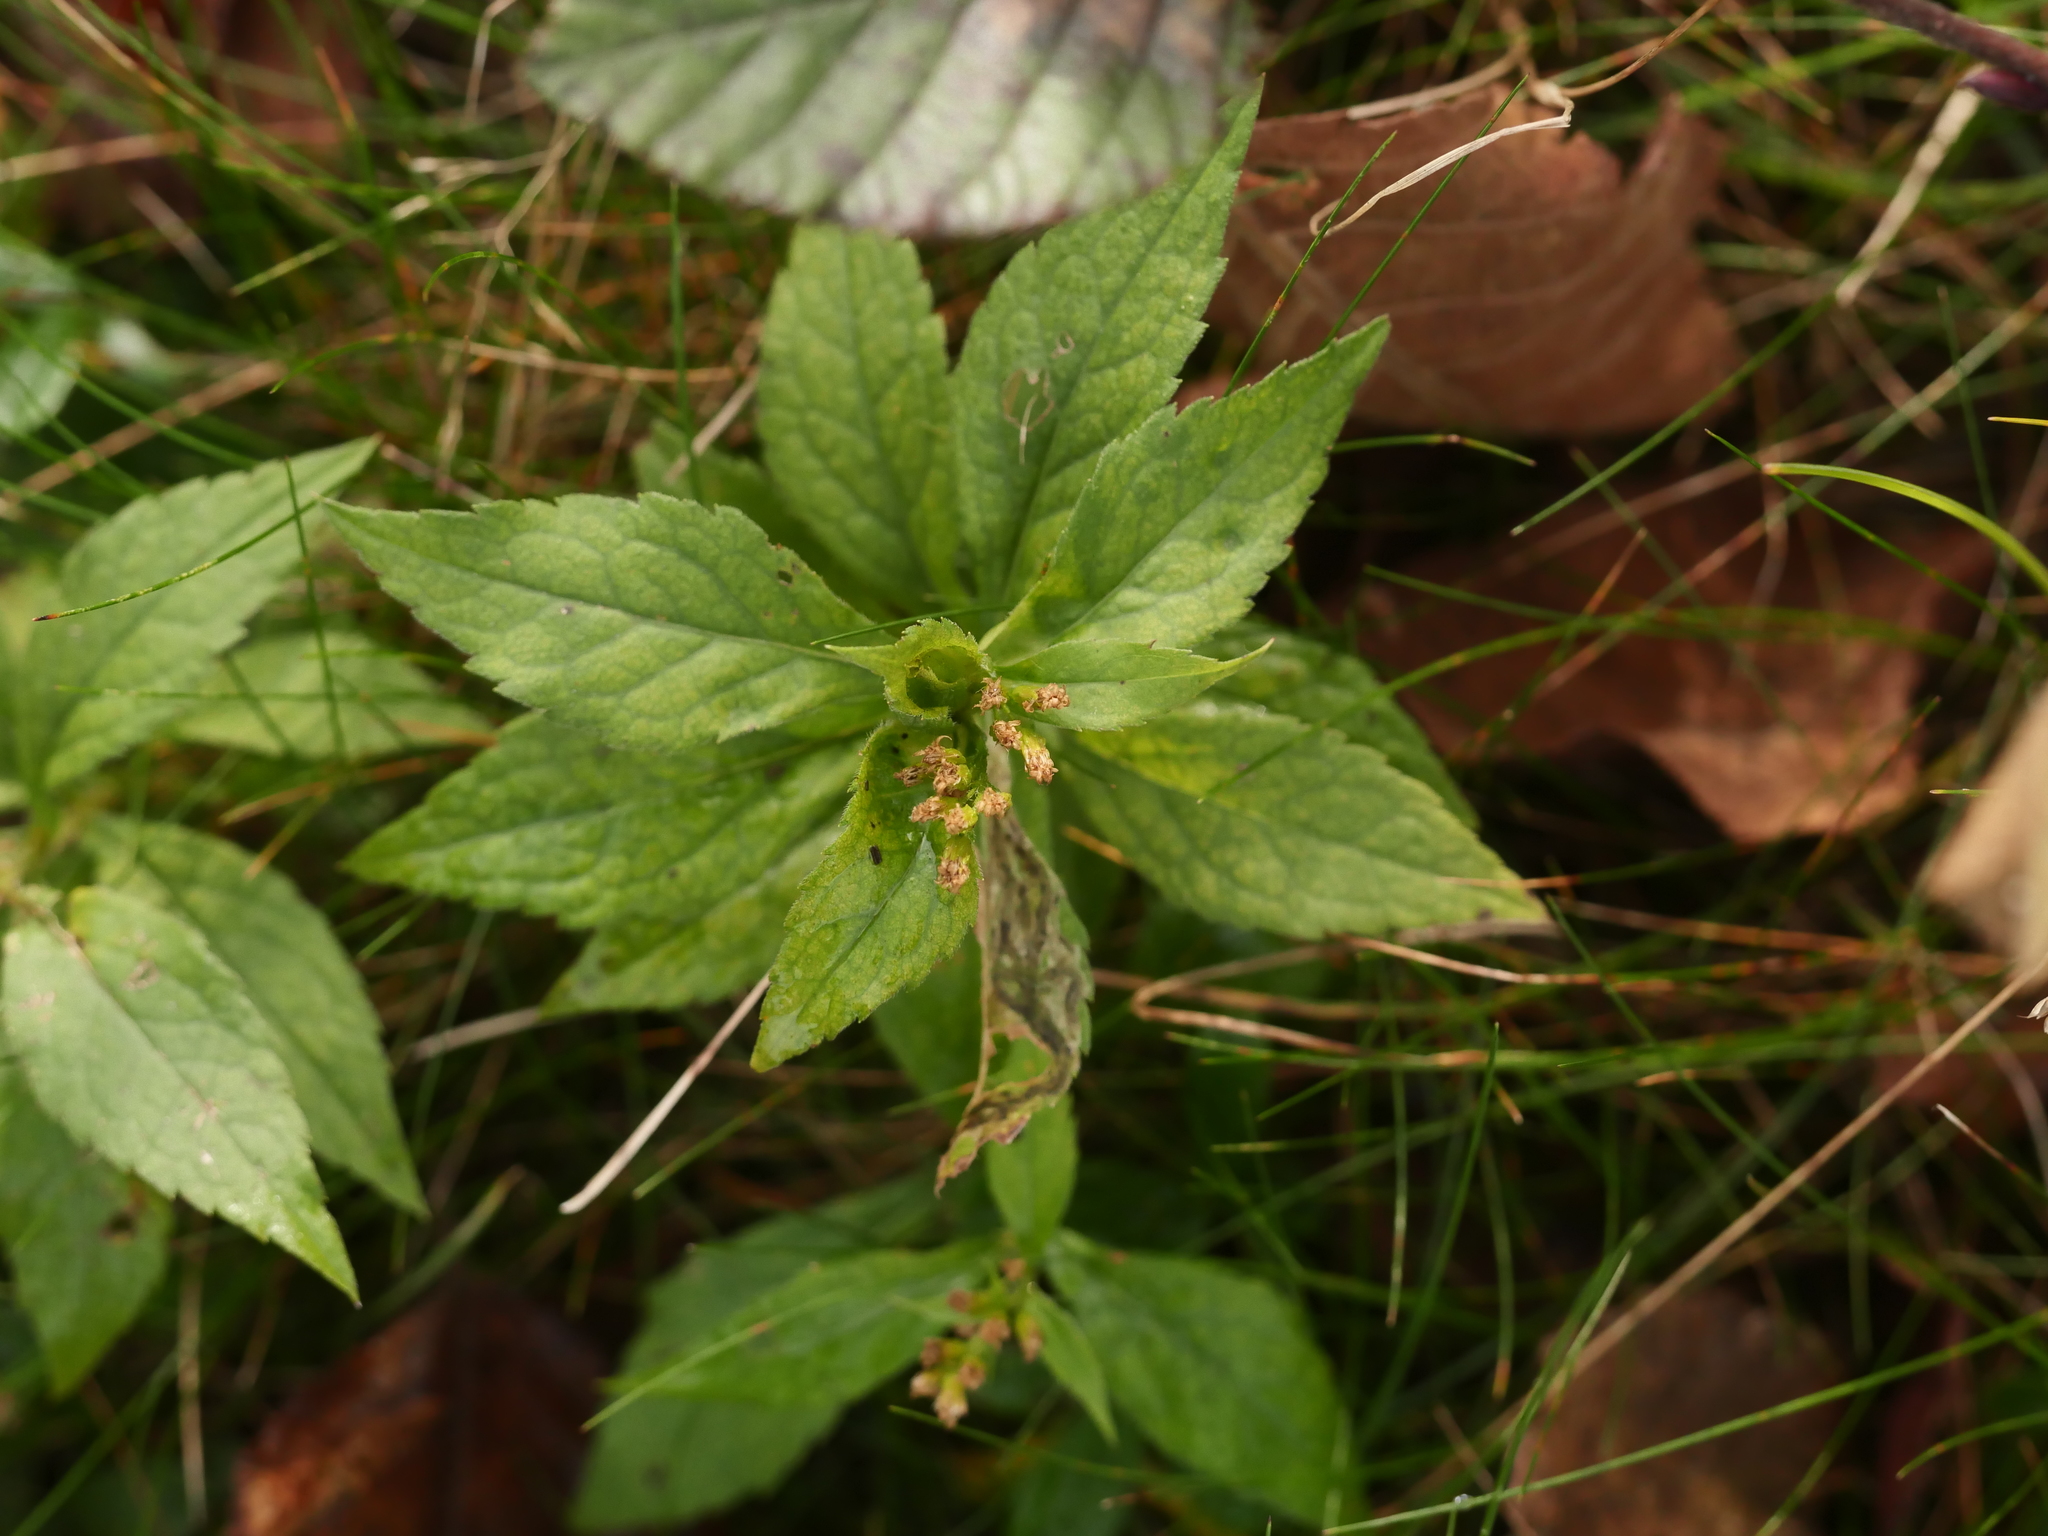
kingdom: Plantae
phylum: Tracheophyta
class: Magnoliopsida
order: Asterales
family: Asteraceae
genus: Solidago
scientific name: Solidago rugosa
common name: Rough-stemmed goldenrod
